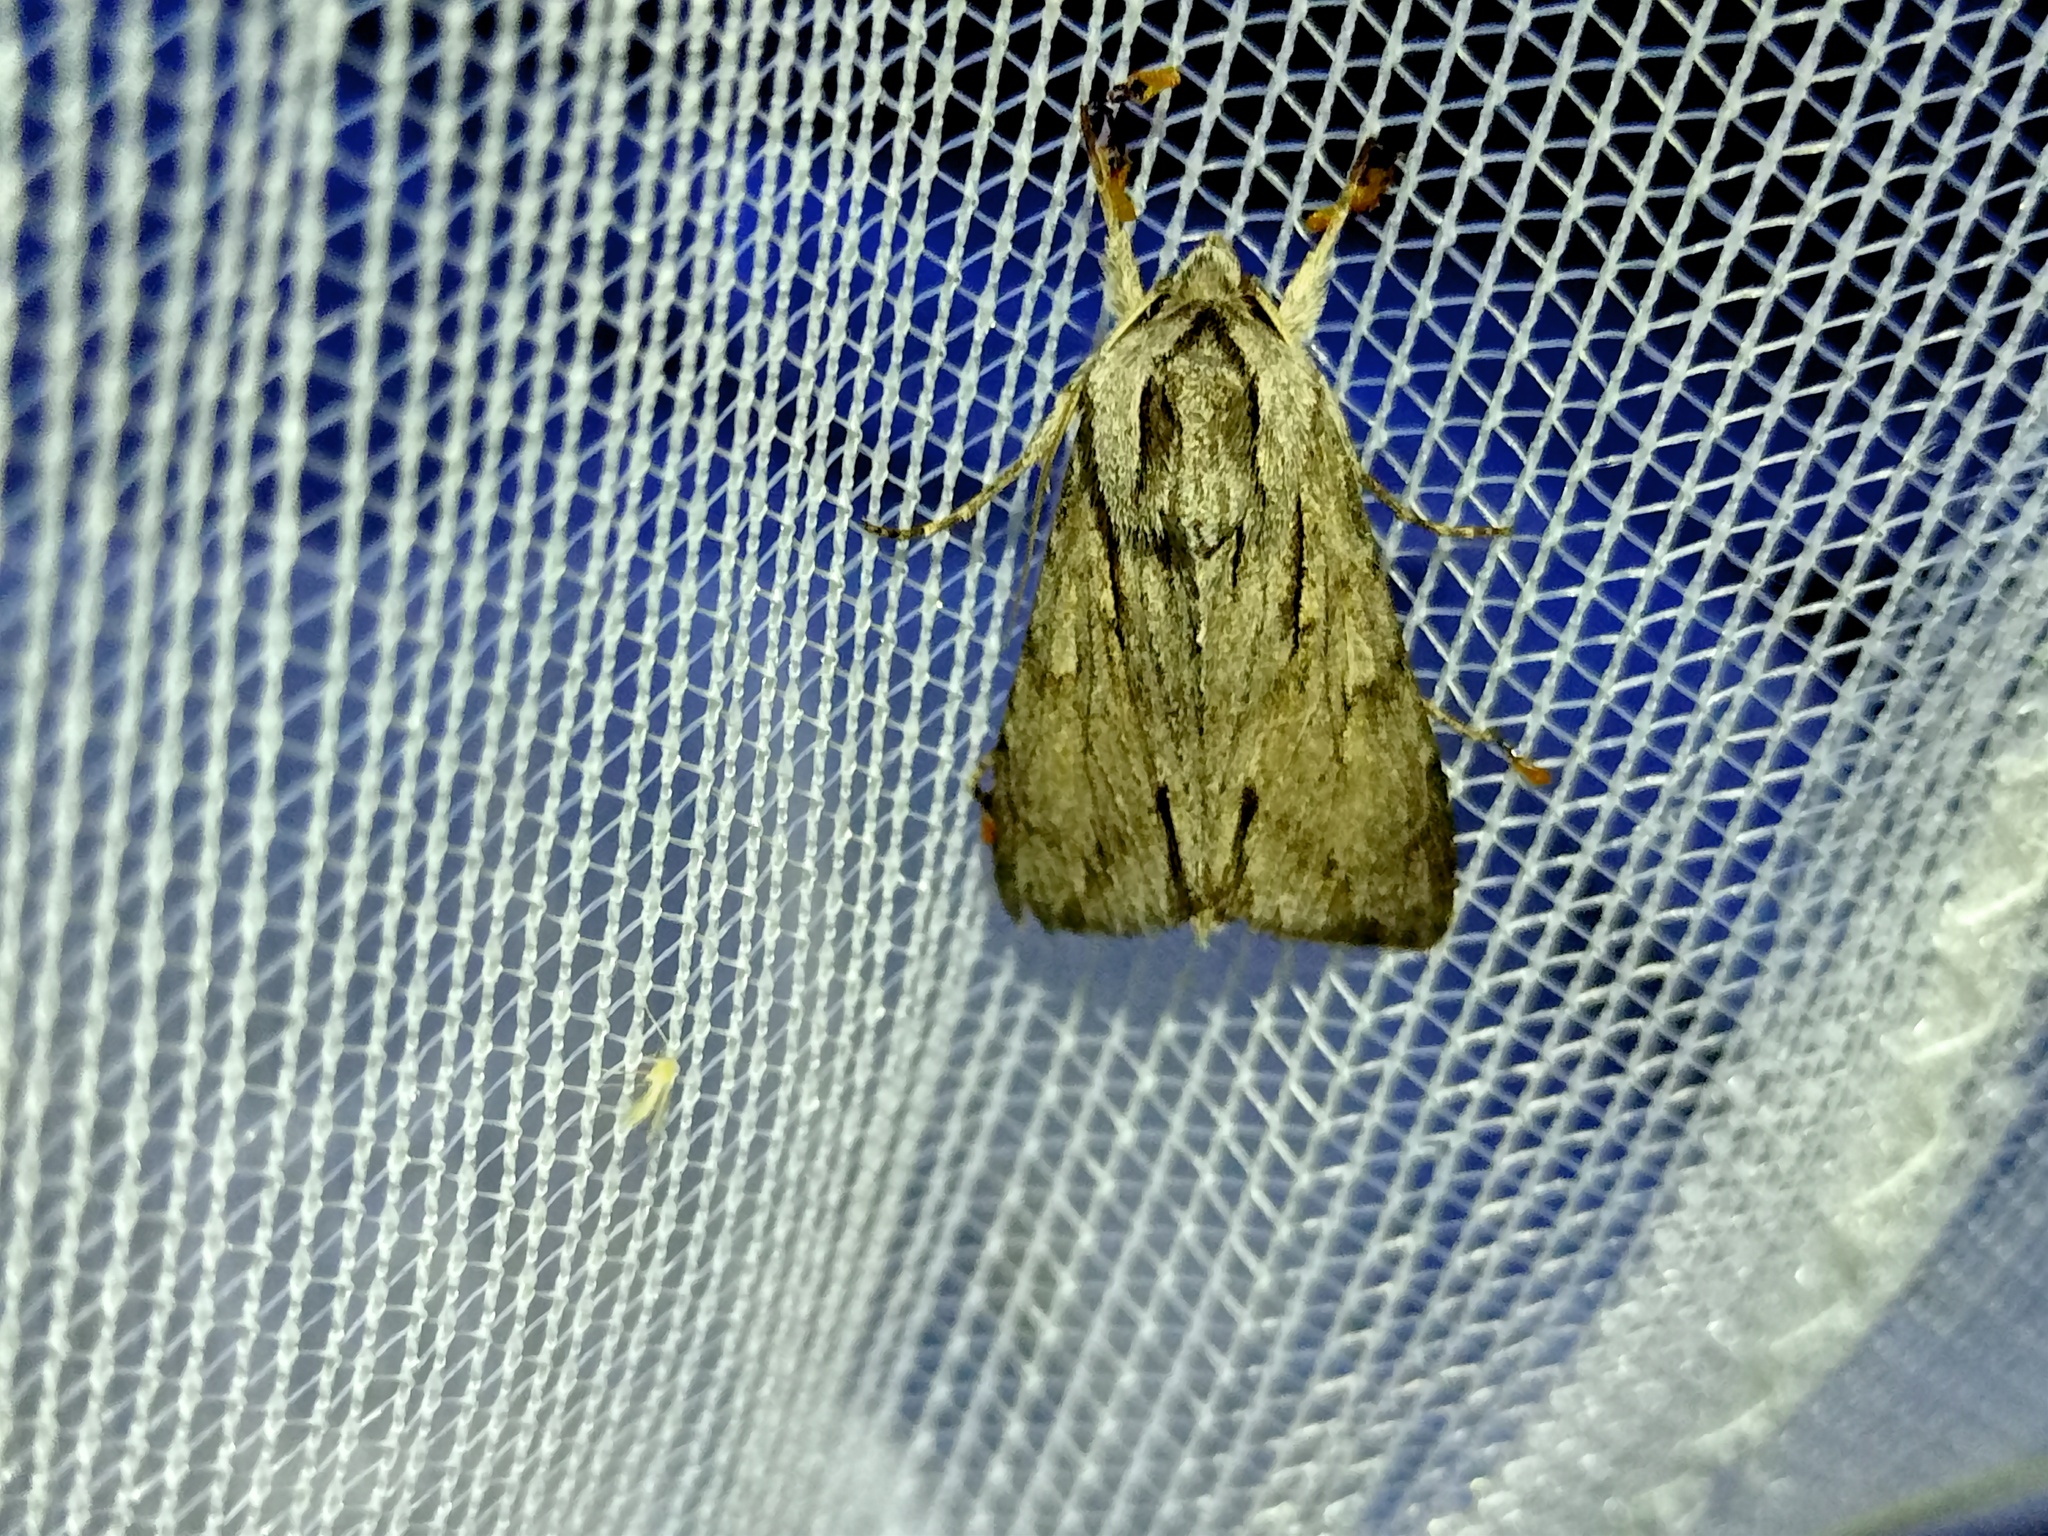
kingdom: Animalia
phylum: Arthropoda
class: Insecta
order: Lepidoptera
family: Noctuidae
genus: Auchmis
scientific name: Auchmis detersa
